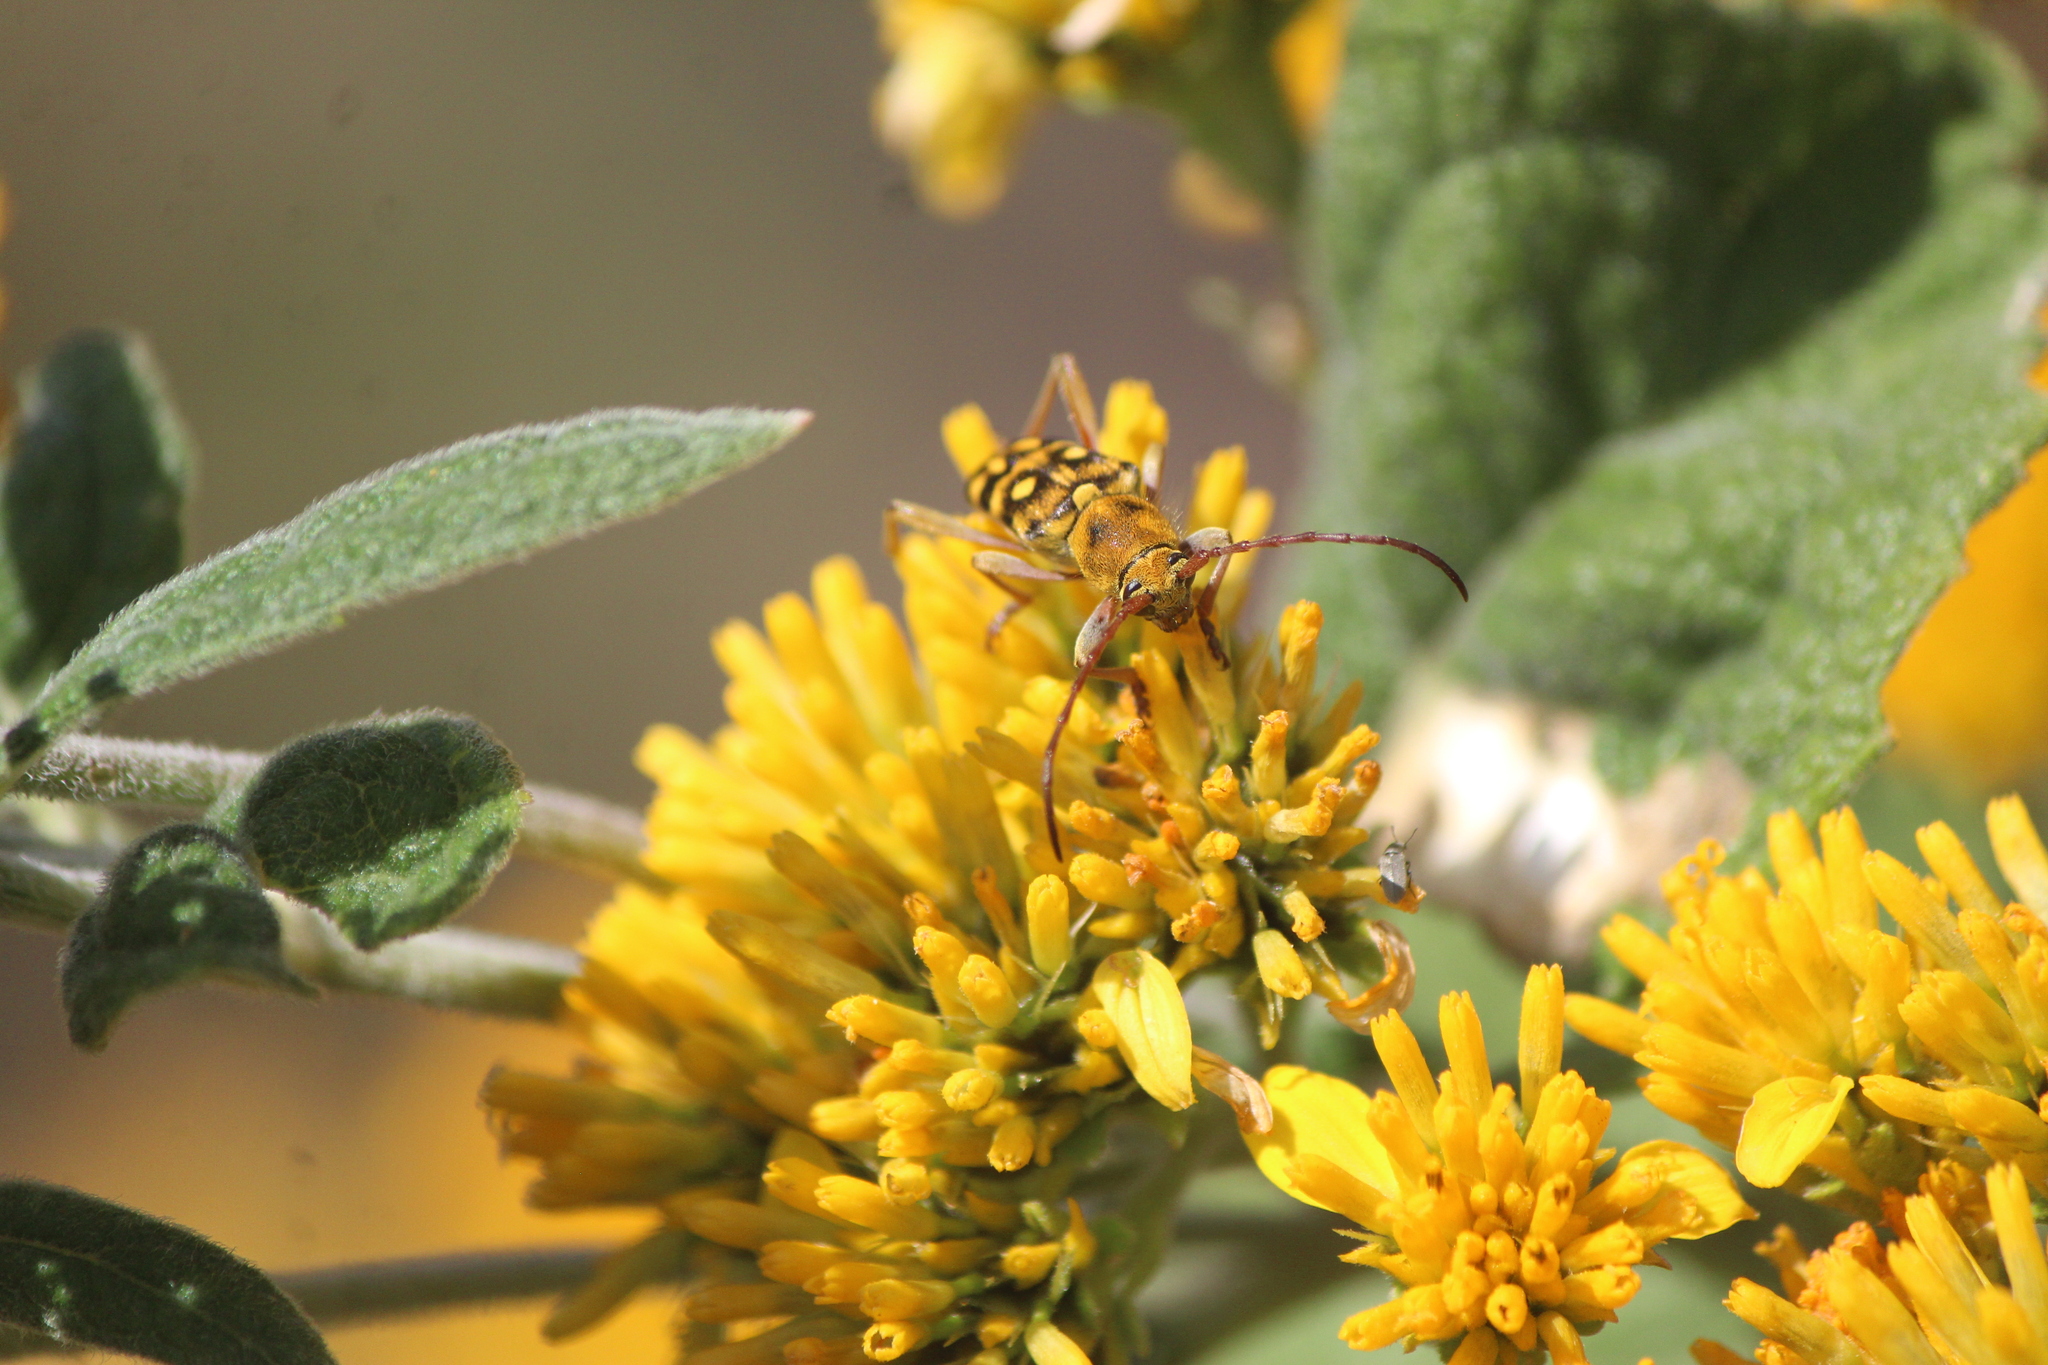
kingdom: Animalia
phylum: Arthropoda
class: Insecta
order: Coleoptera
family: Cerambycidae
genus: Ochraethes
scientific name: Ochraethes sommeri
